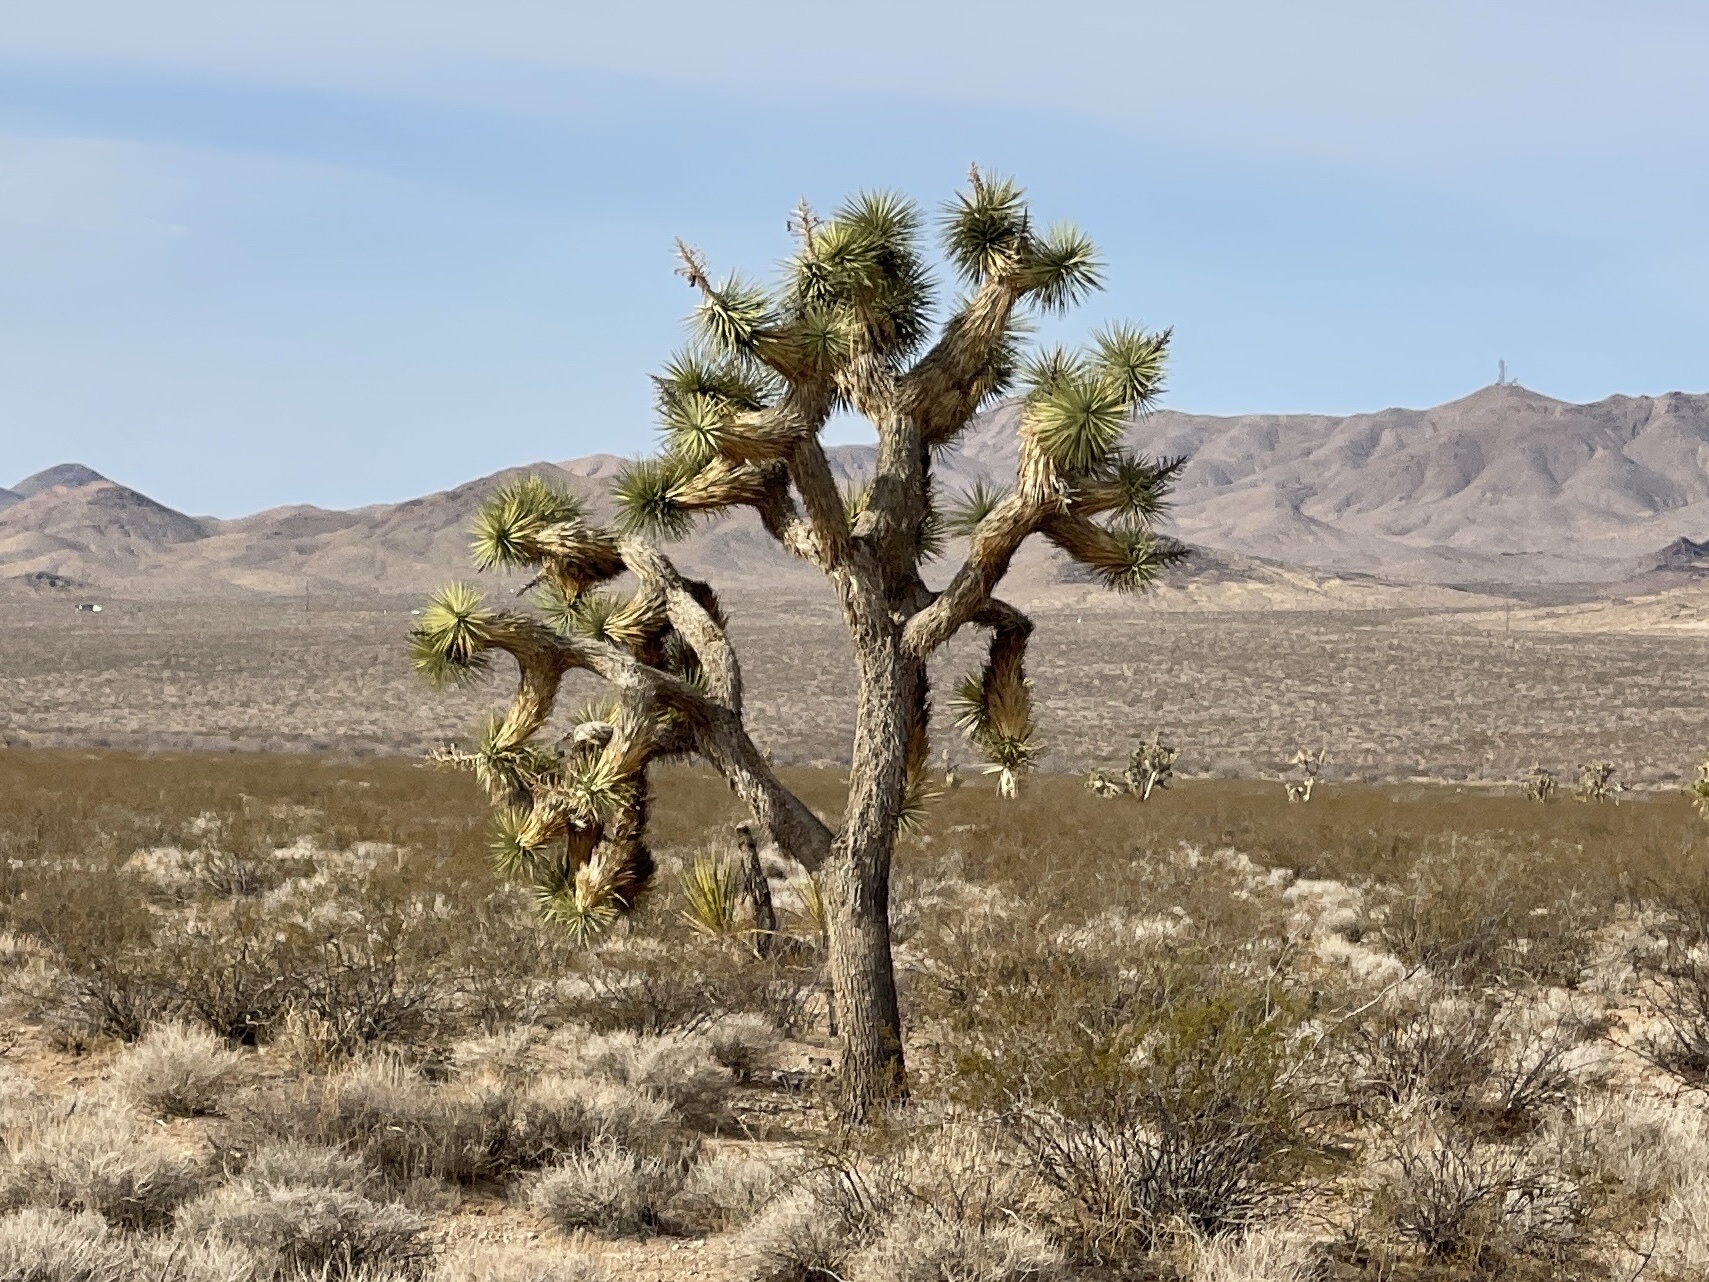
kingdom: Plantae
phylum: Tracheophyta
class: Liliopsida
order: Asparagales
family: Asparagaceae
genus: Yucca
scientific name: Yucca brevifolia
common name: Joshua tree
